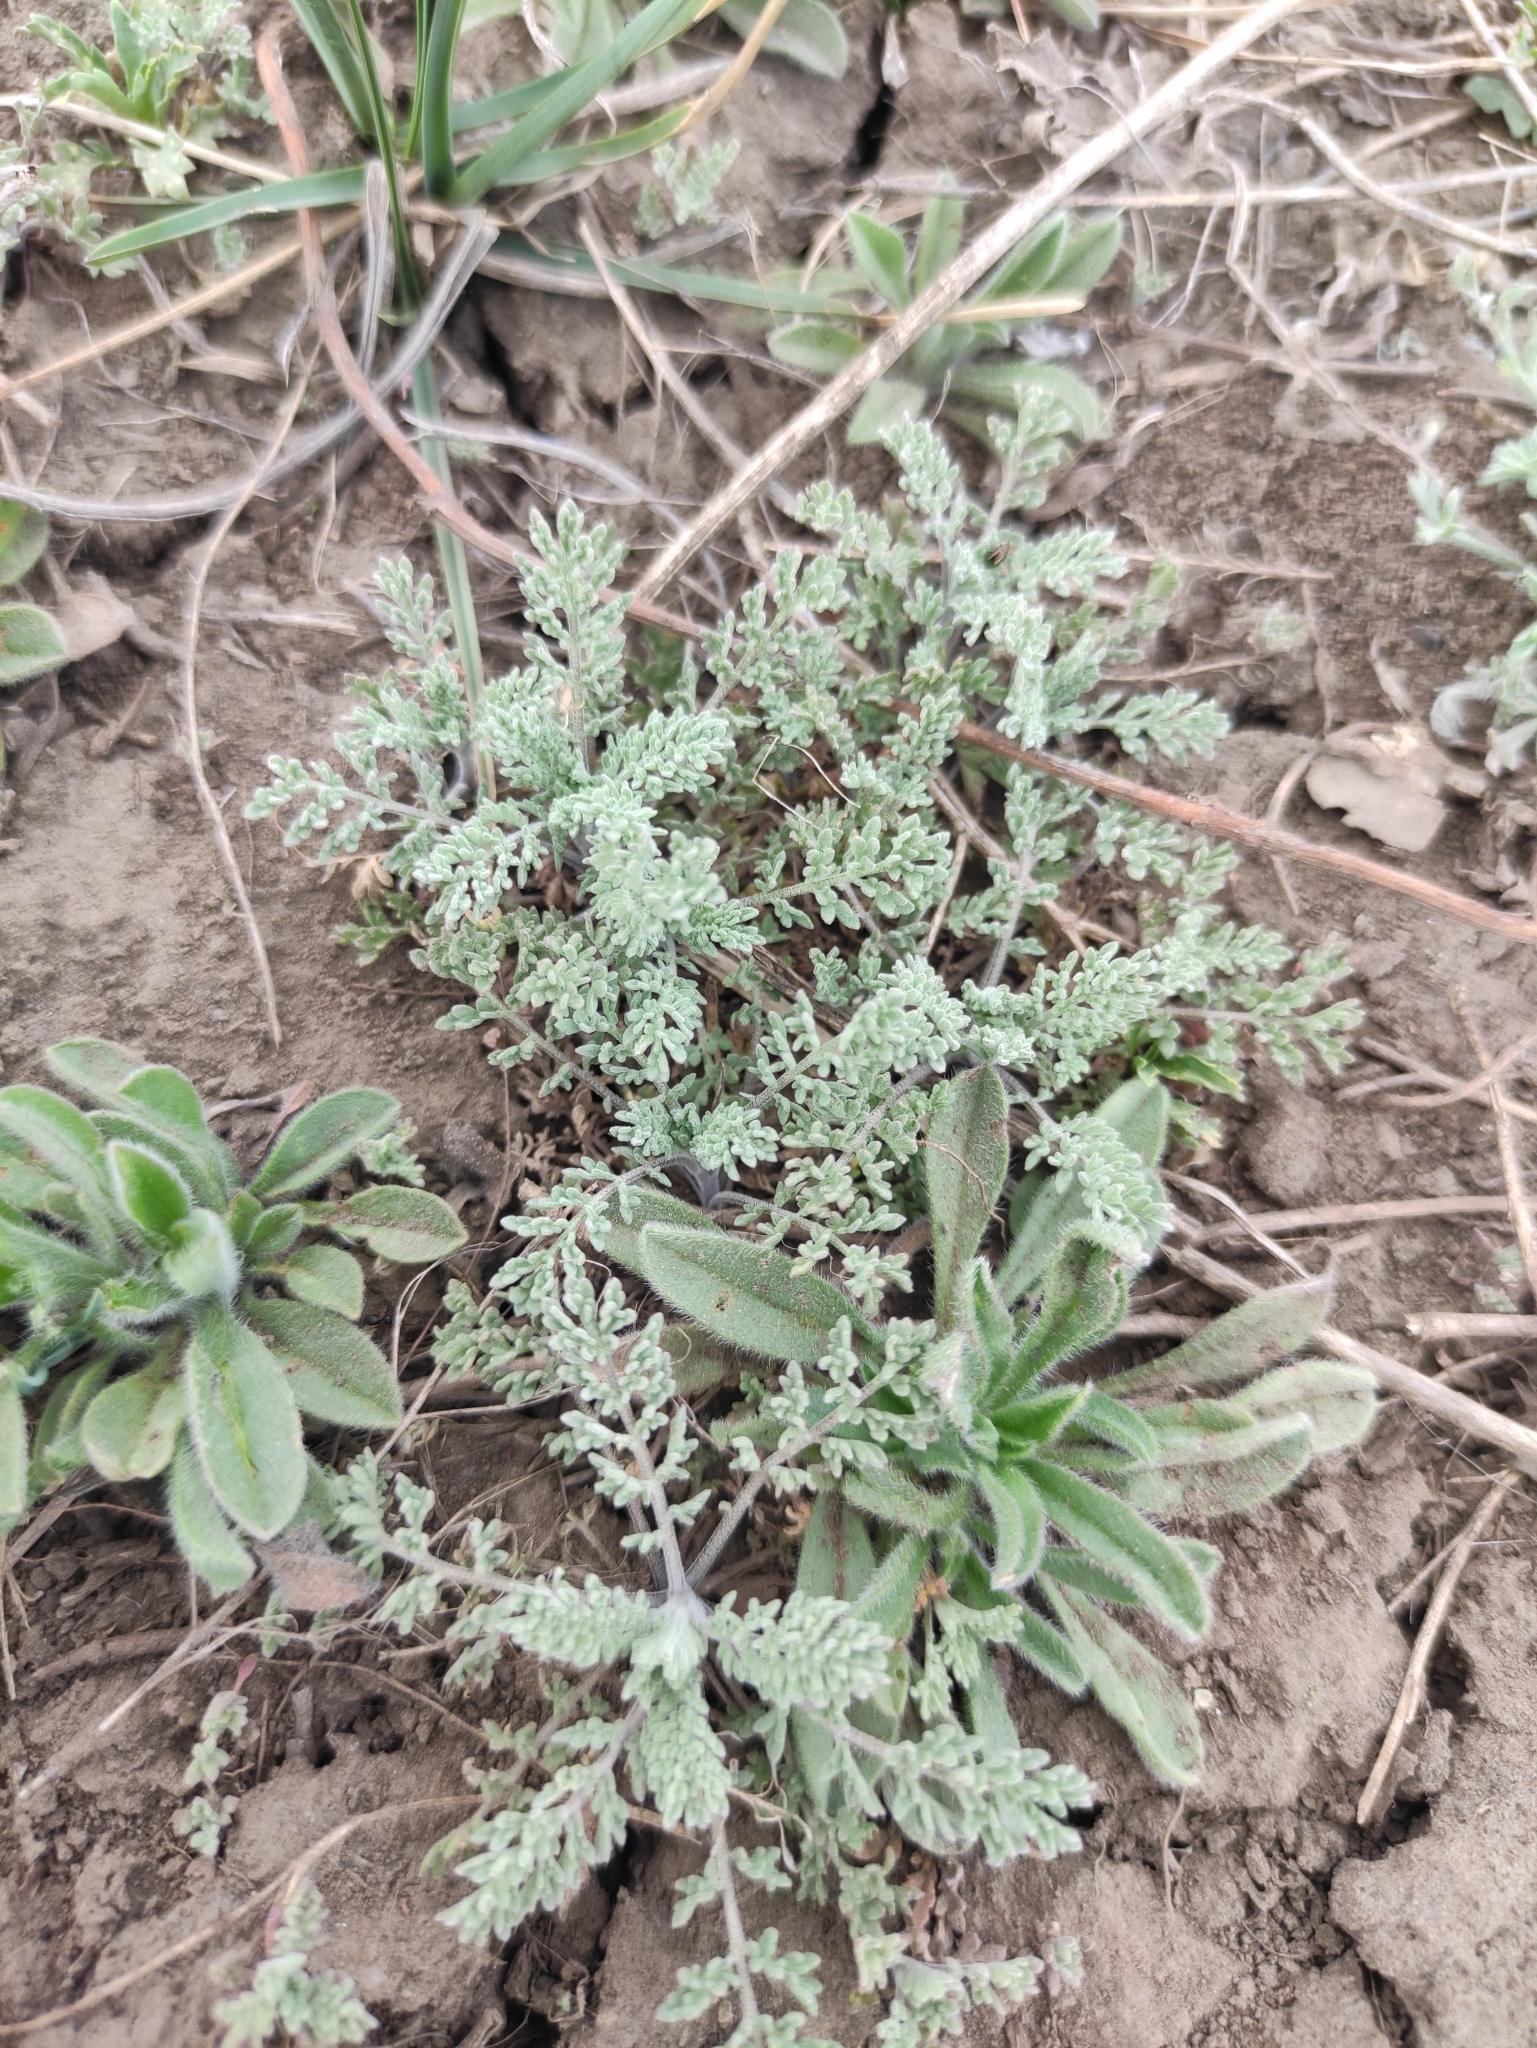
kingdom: Plantae
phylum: Tracheophyta
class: Magnoliopsida
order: Brassicales
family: Brassicaceae
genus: Descurainia
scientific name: Descurainia sophia
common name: Flixweed
